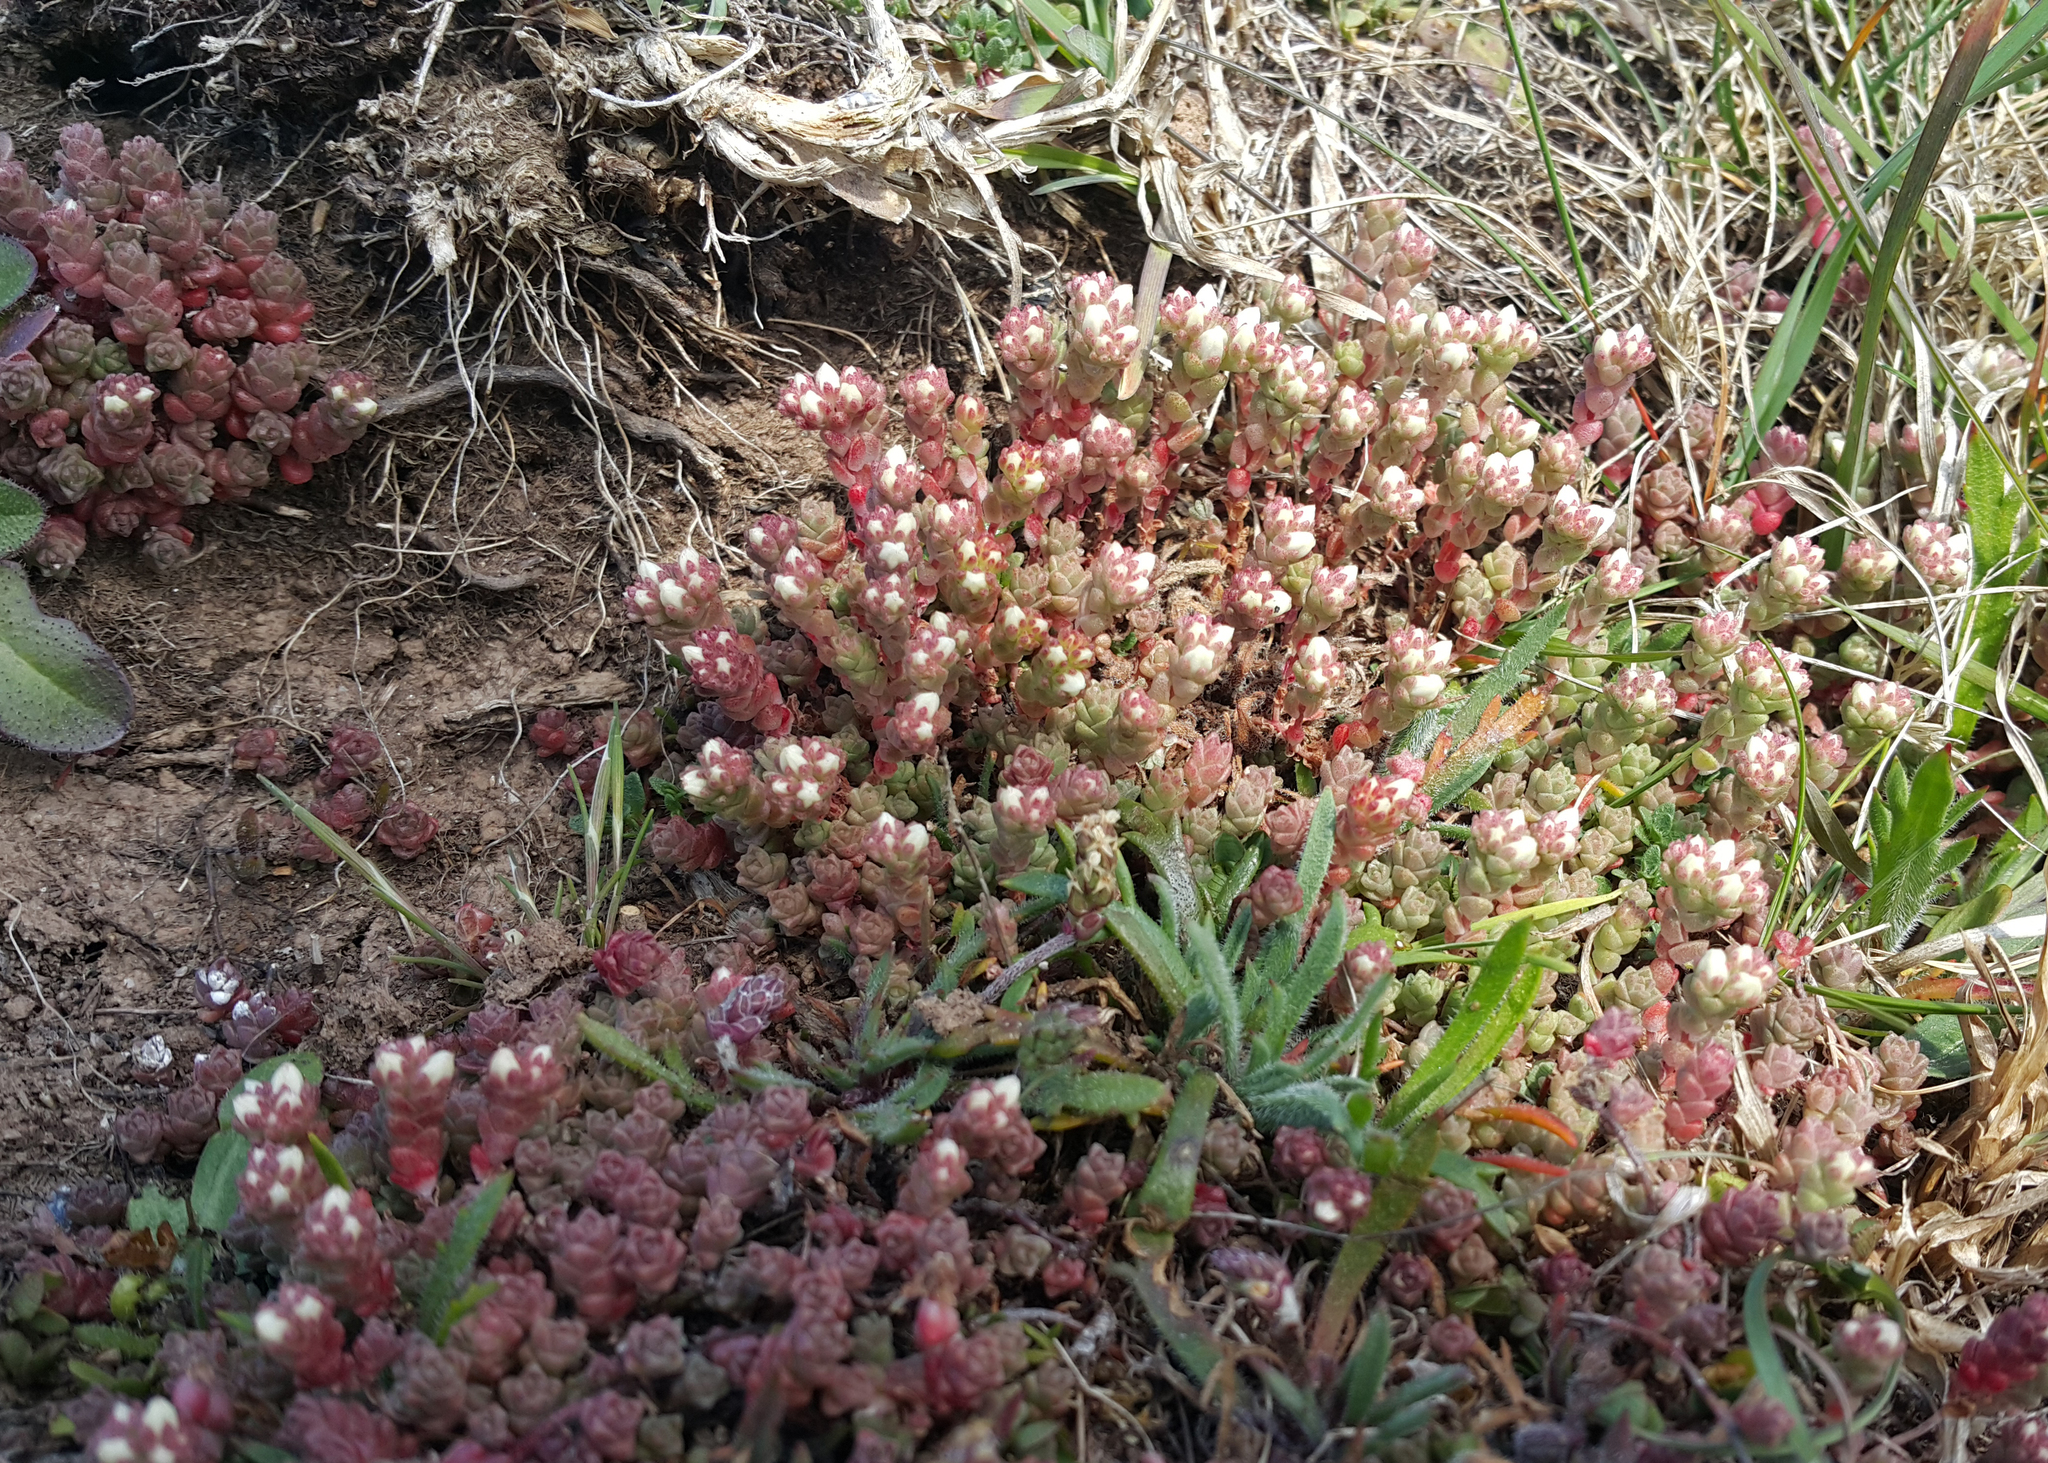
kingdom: Plantae
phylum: Tracheophyta
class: Magnoliopsida
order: Saxifragales
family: Crassulaceae
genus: Sedum
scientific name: Sedum anglicum
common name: English stonecrop
